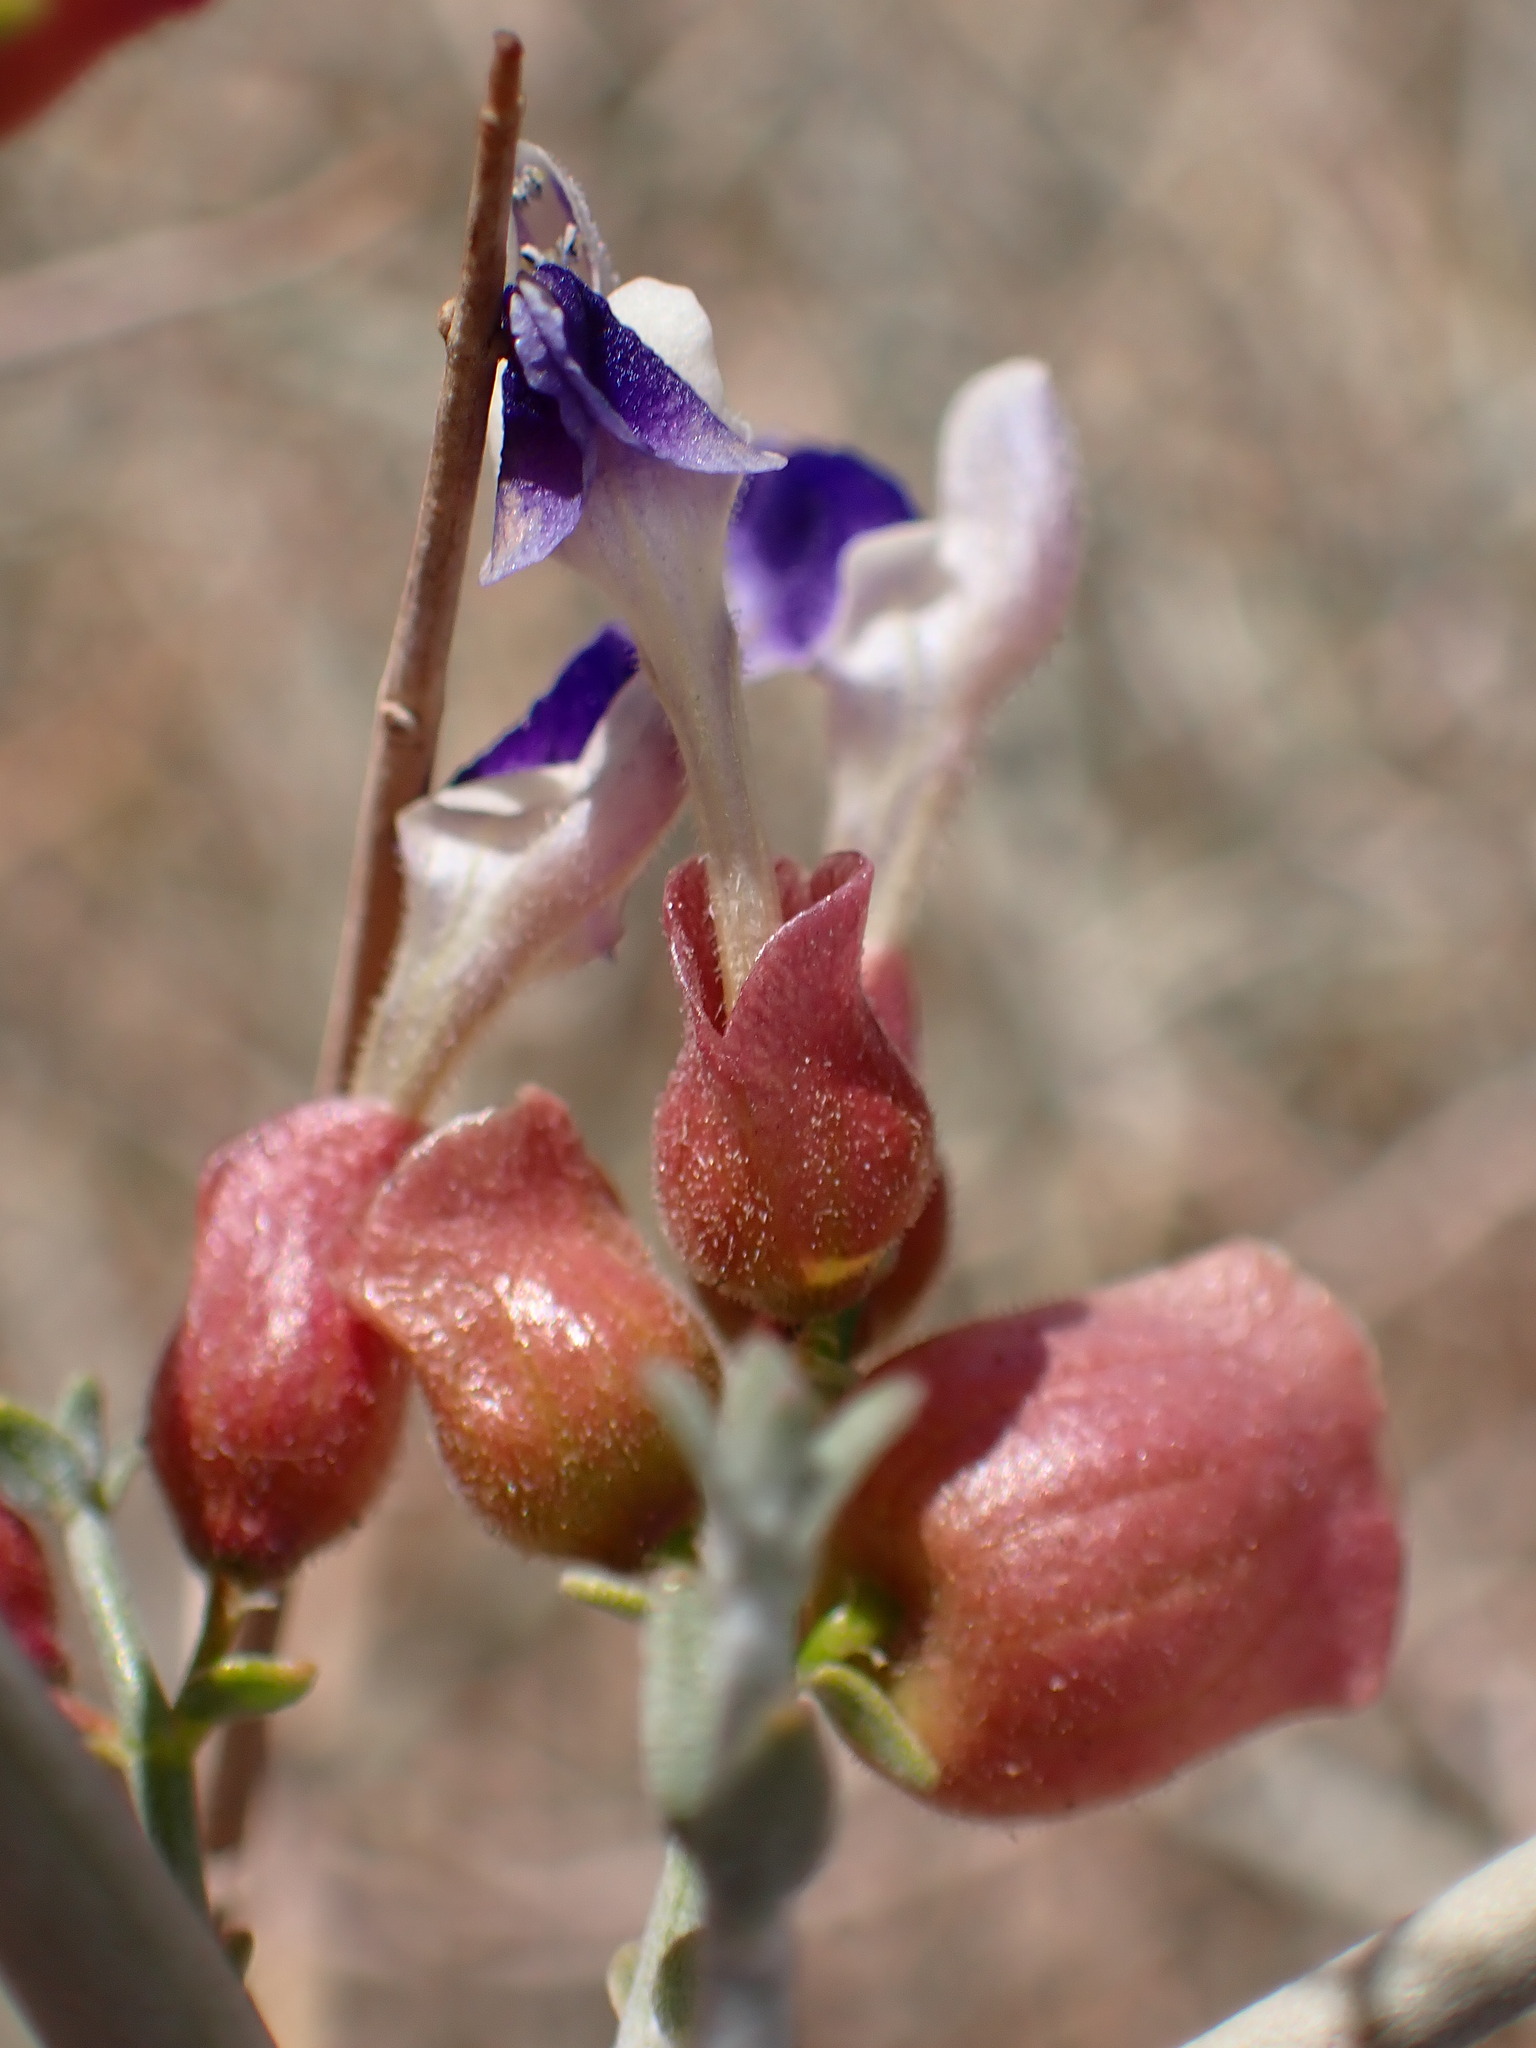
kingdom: Plantae
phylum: Tracheophyta
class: Magnoliopsida
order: Lamiales
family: Lamiaceae
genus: Scutellaria
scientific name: Scutellaria mexicana
